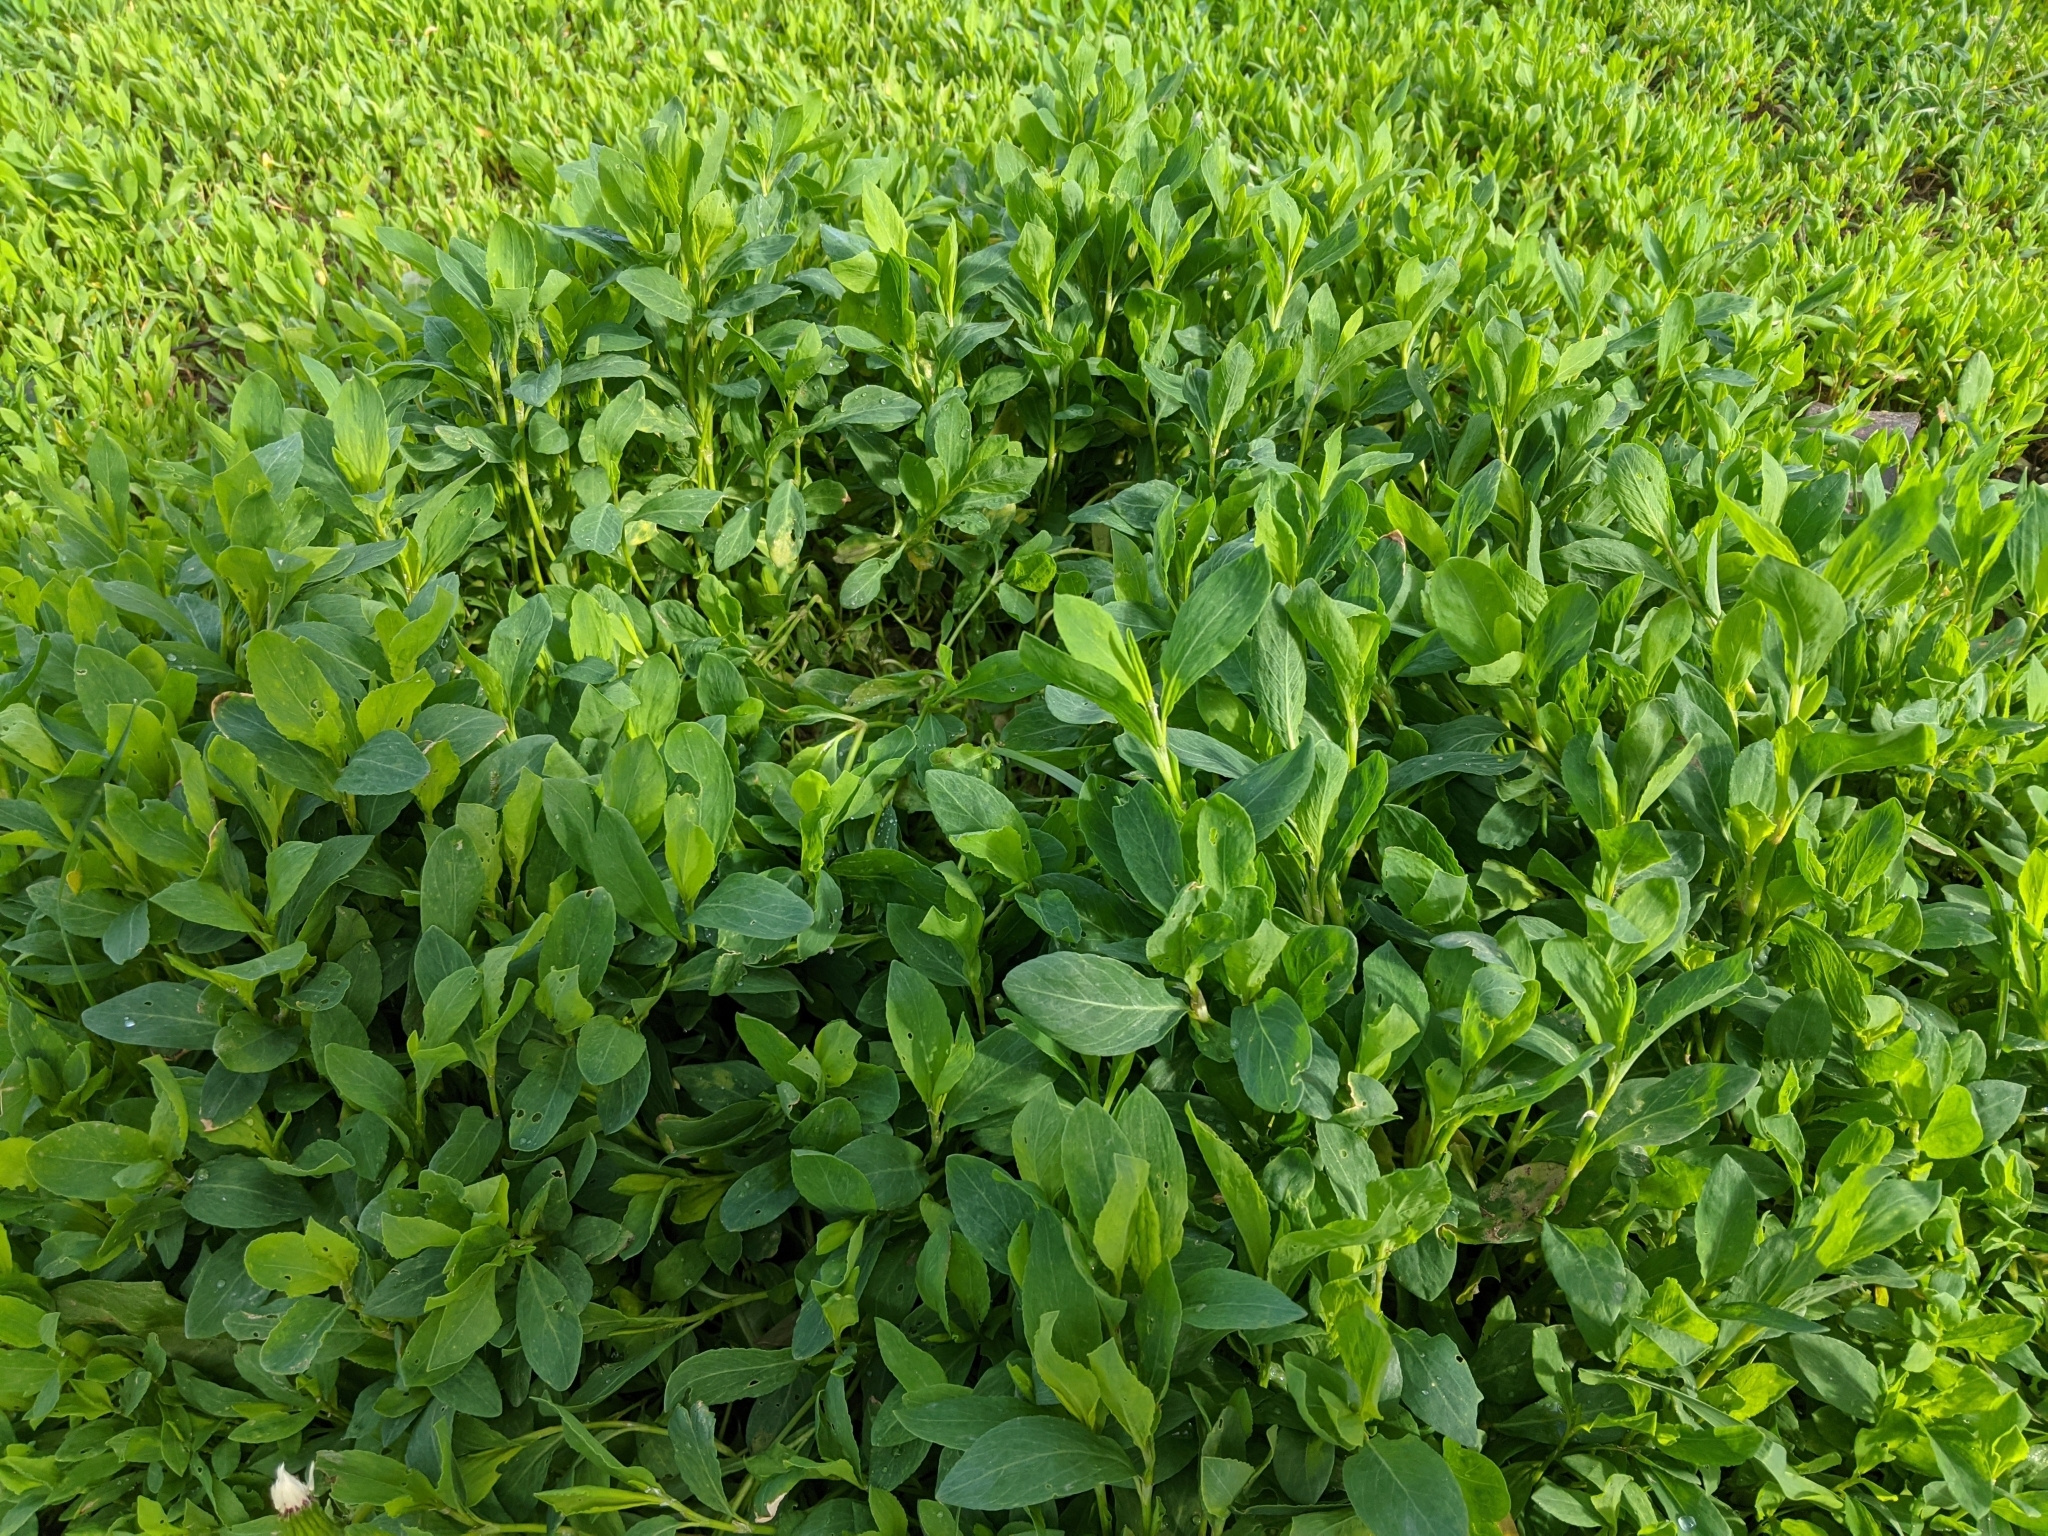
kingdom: Plantae
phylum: Tracheophyta
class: Magnoliopsida
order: Caryophyllales
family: Polygonaceae
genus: Polygonum
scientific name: Polygonum
